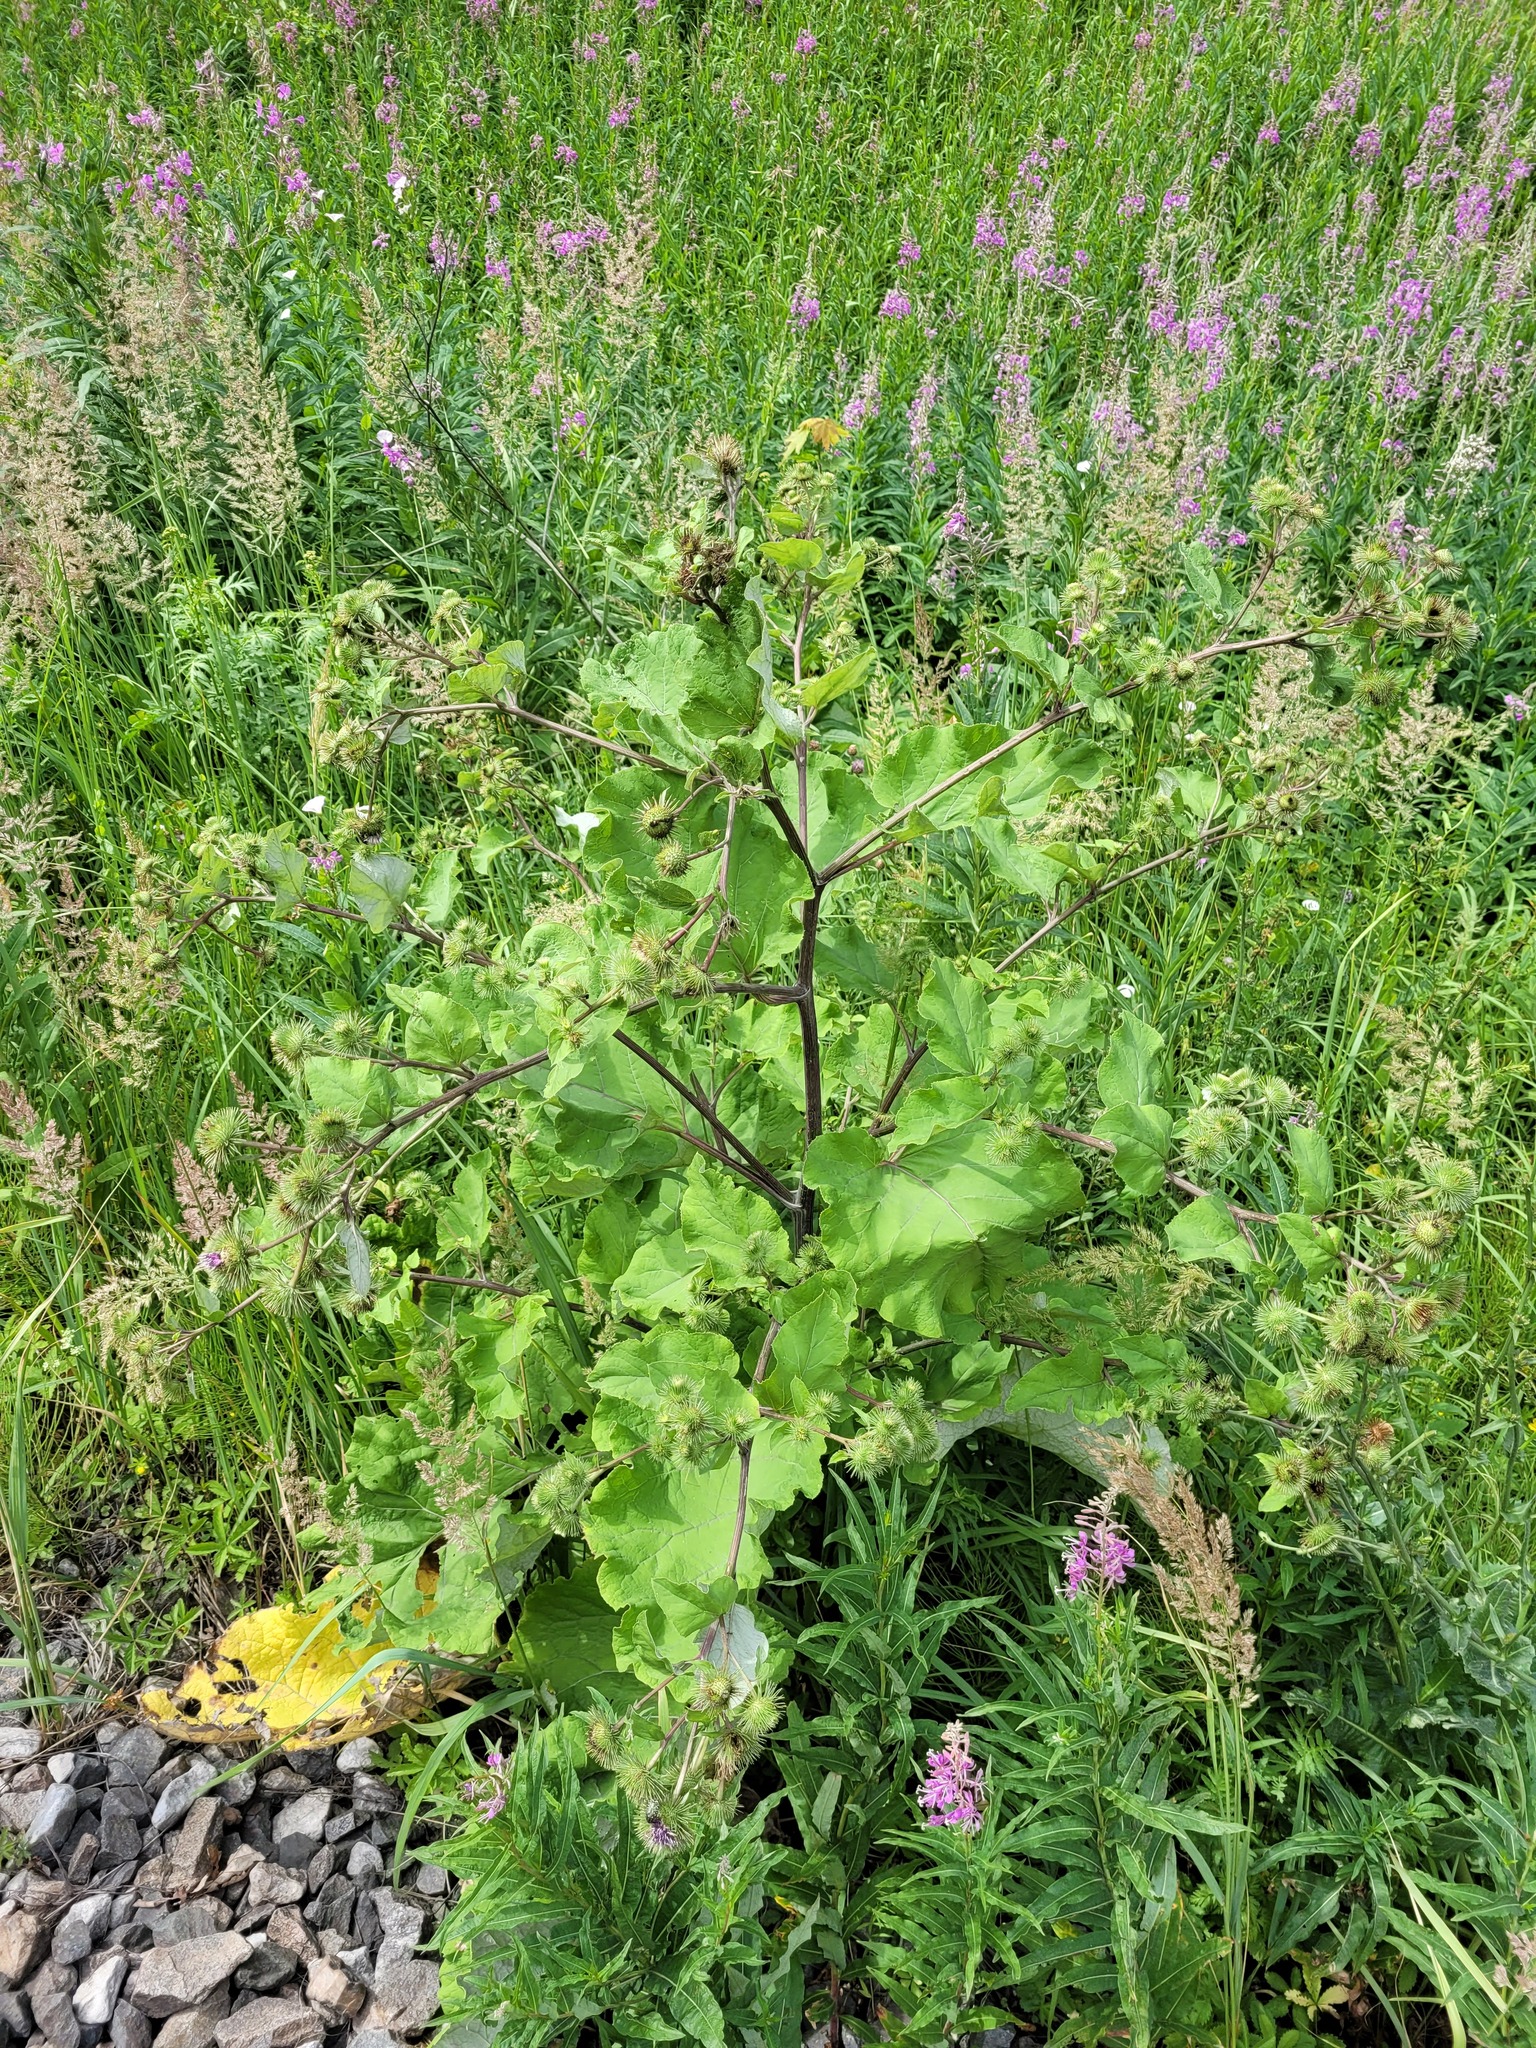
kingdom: Plantae
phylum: Tracheophyta
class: Magnoliopsida
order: Asterales
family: Asteraceae
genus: Arctium
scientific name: Arctium minus
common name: Lesser burdock
